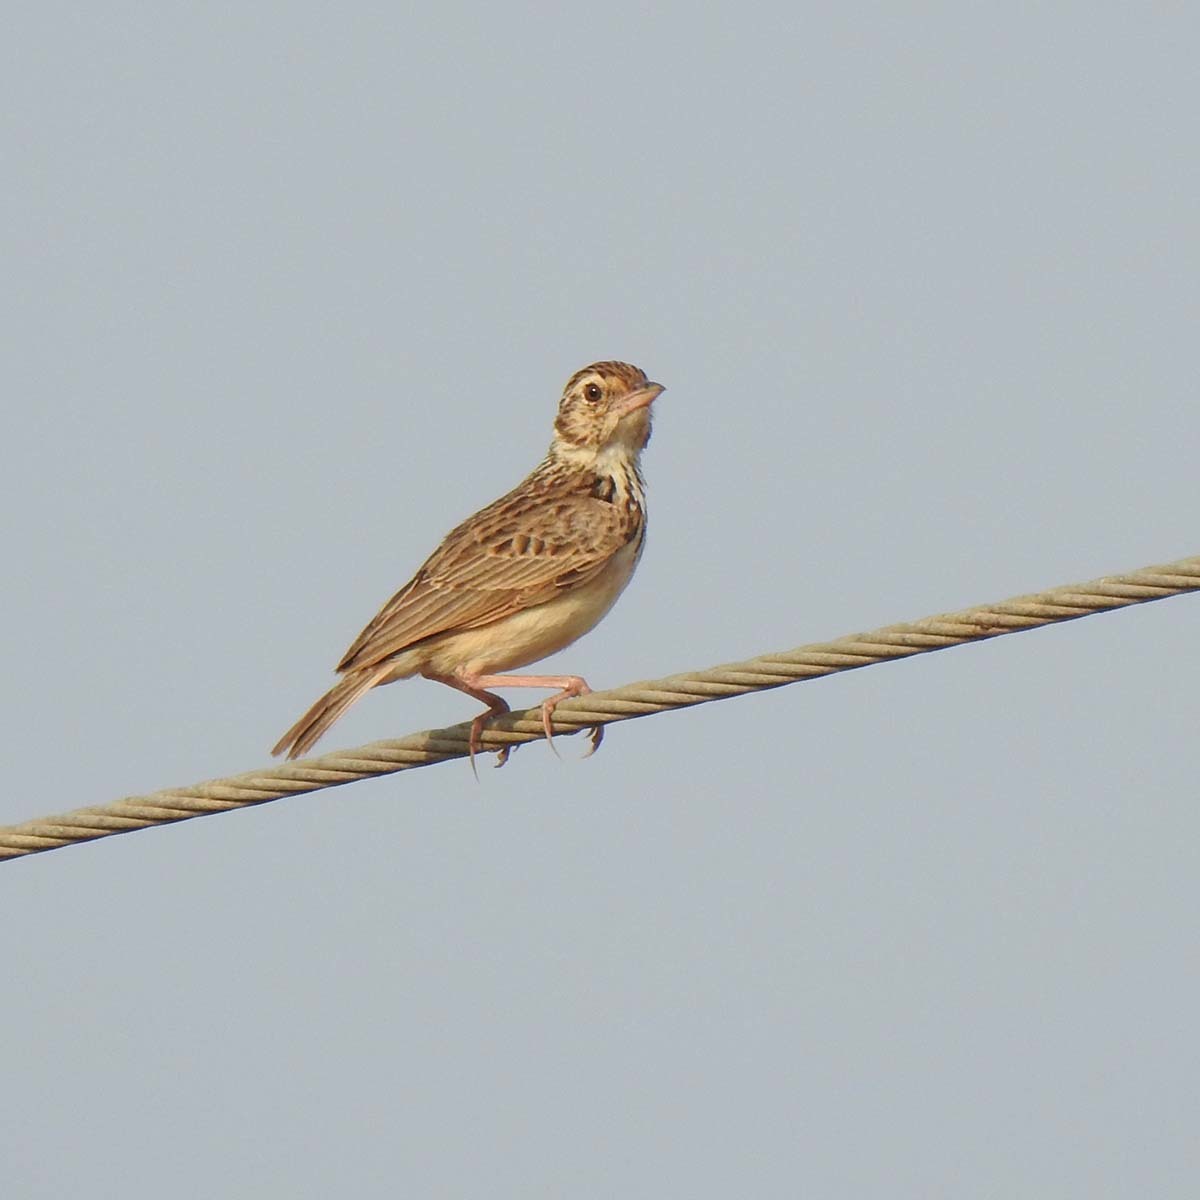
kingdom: Animalia
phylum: Chordata
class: Aves
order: Passeriformes
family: Alaudidae
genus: Mirafra
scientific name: Mirafra affinis
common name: Jerdon's bushlark
